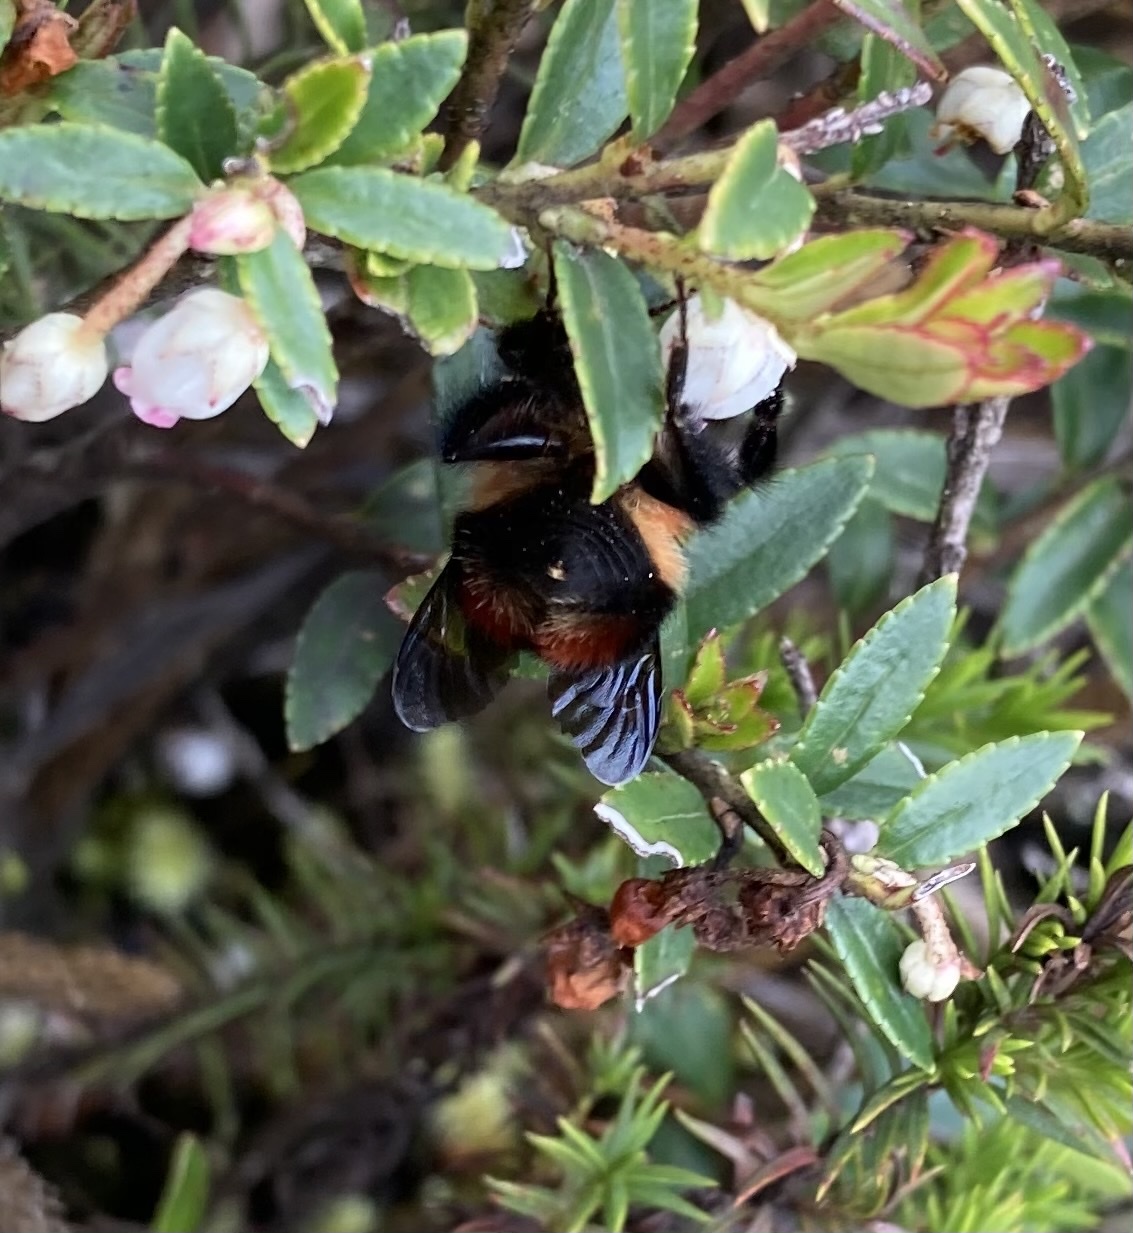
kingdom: Animalia
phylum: Arthropoda
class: Insecta
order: Hymenoptera
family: Apidae
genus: Bombus
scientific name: Bombus rubicundus
